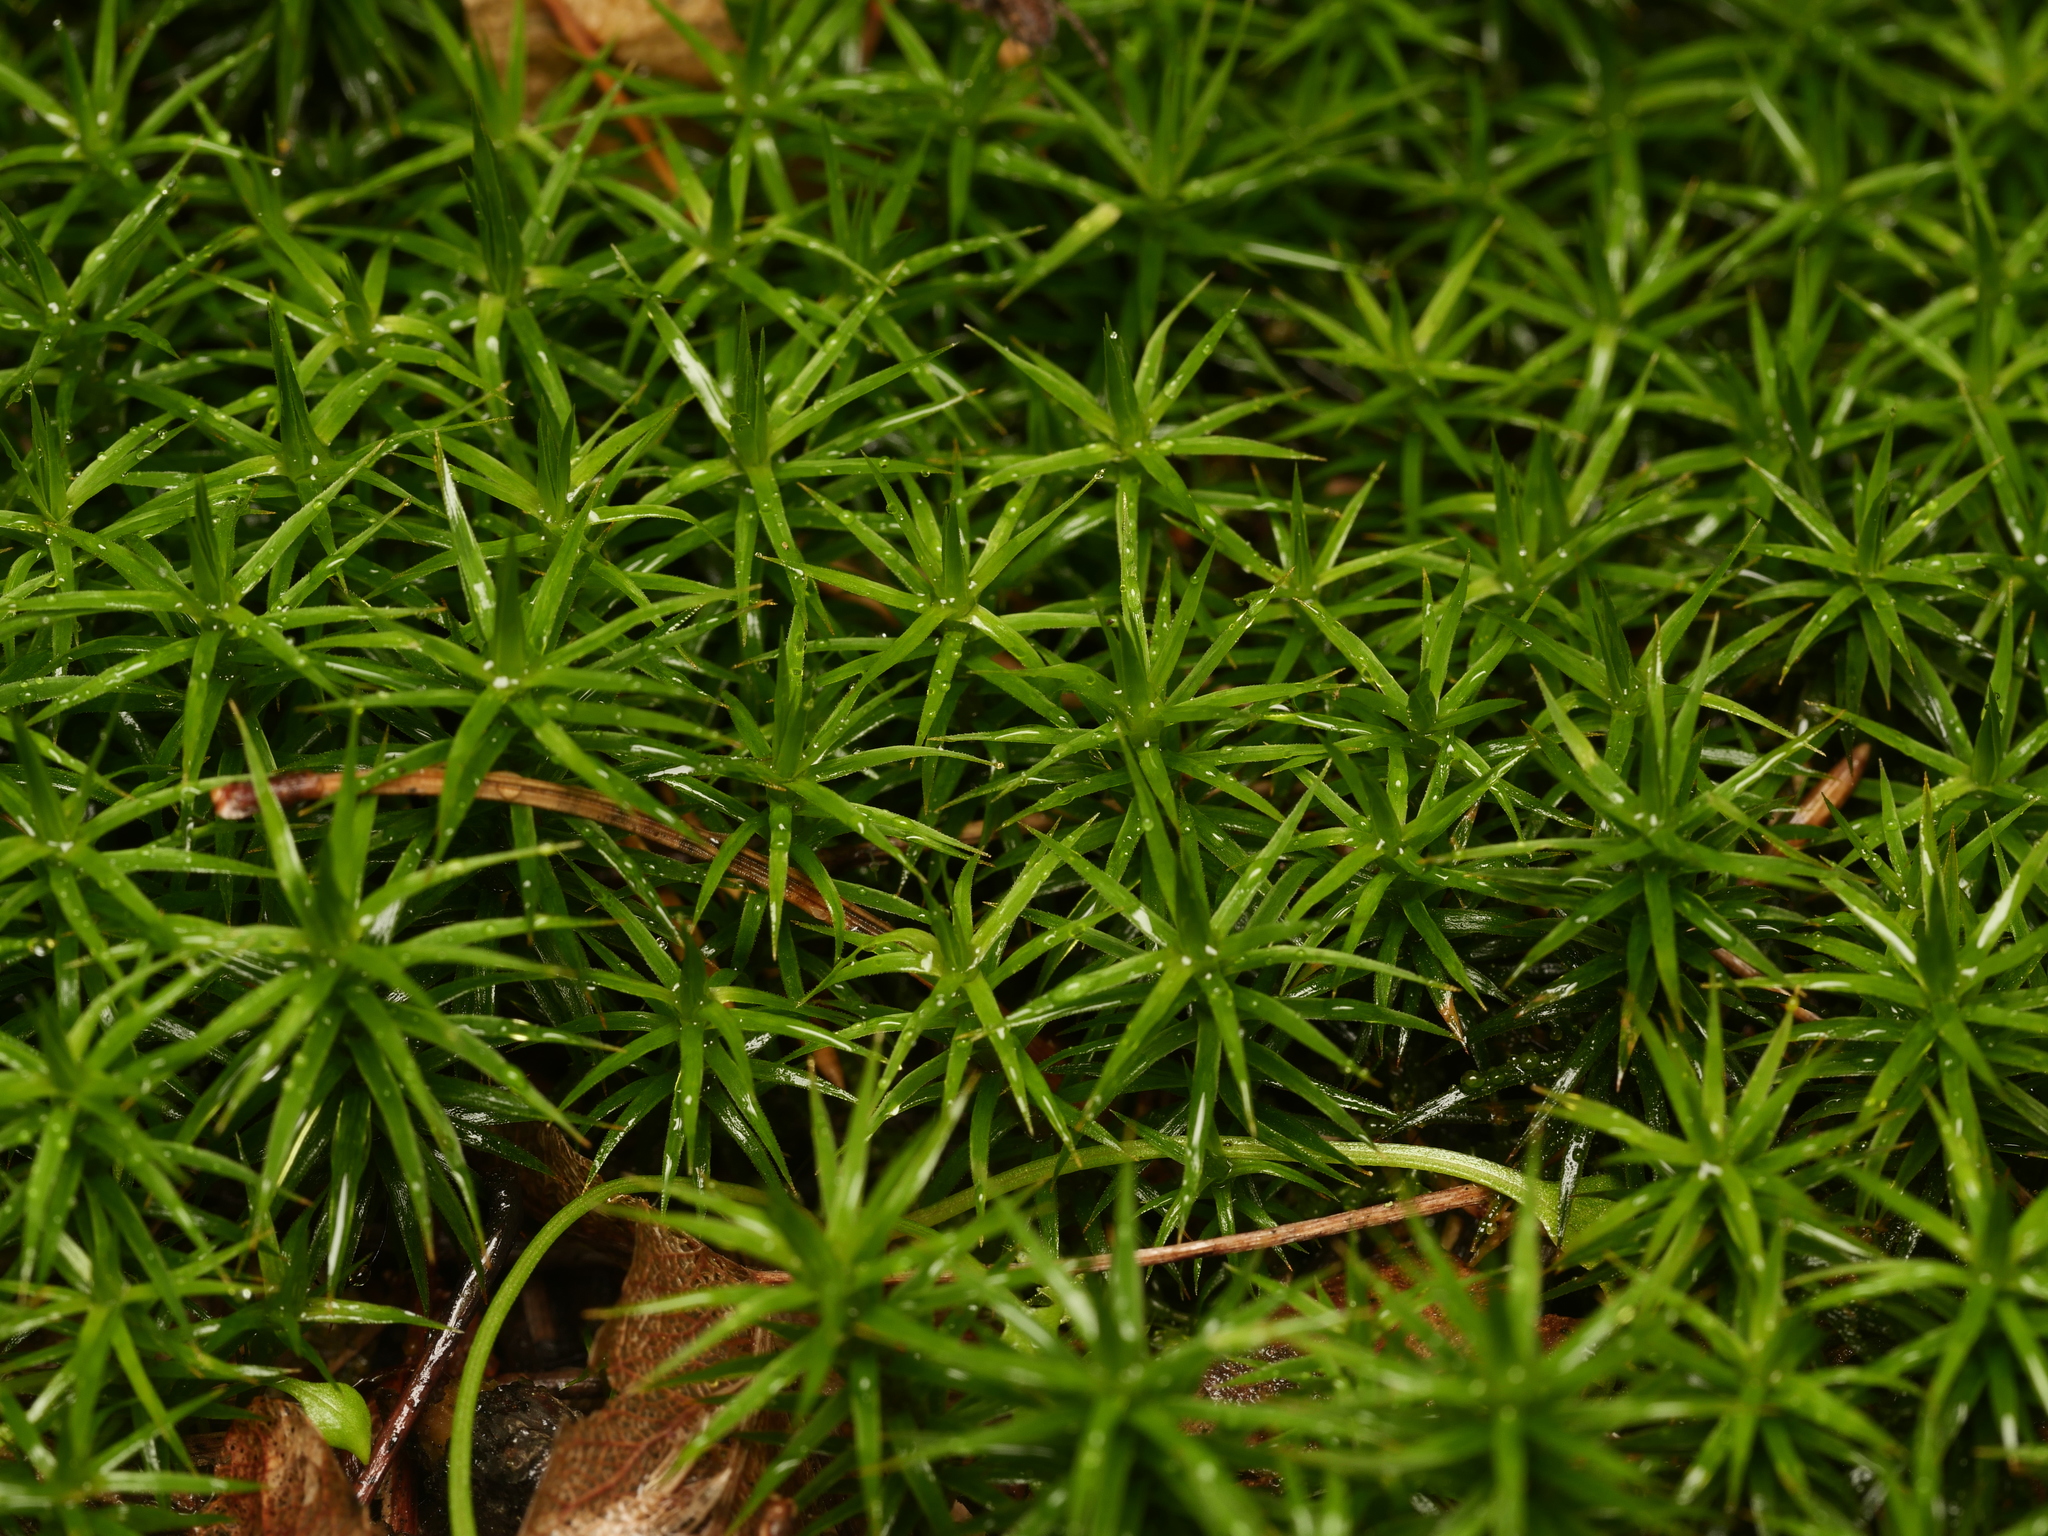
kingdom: Plantae
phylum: Bryophyta
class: Polytrichopsida
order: Polytrichales
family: Polytrichaceae
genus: Polytrichum
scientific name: Polytrichum formosum
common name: Bank haircap moss
